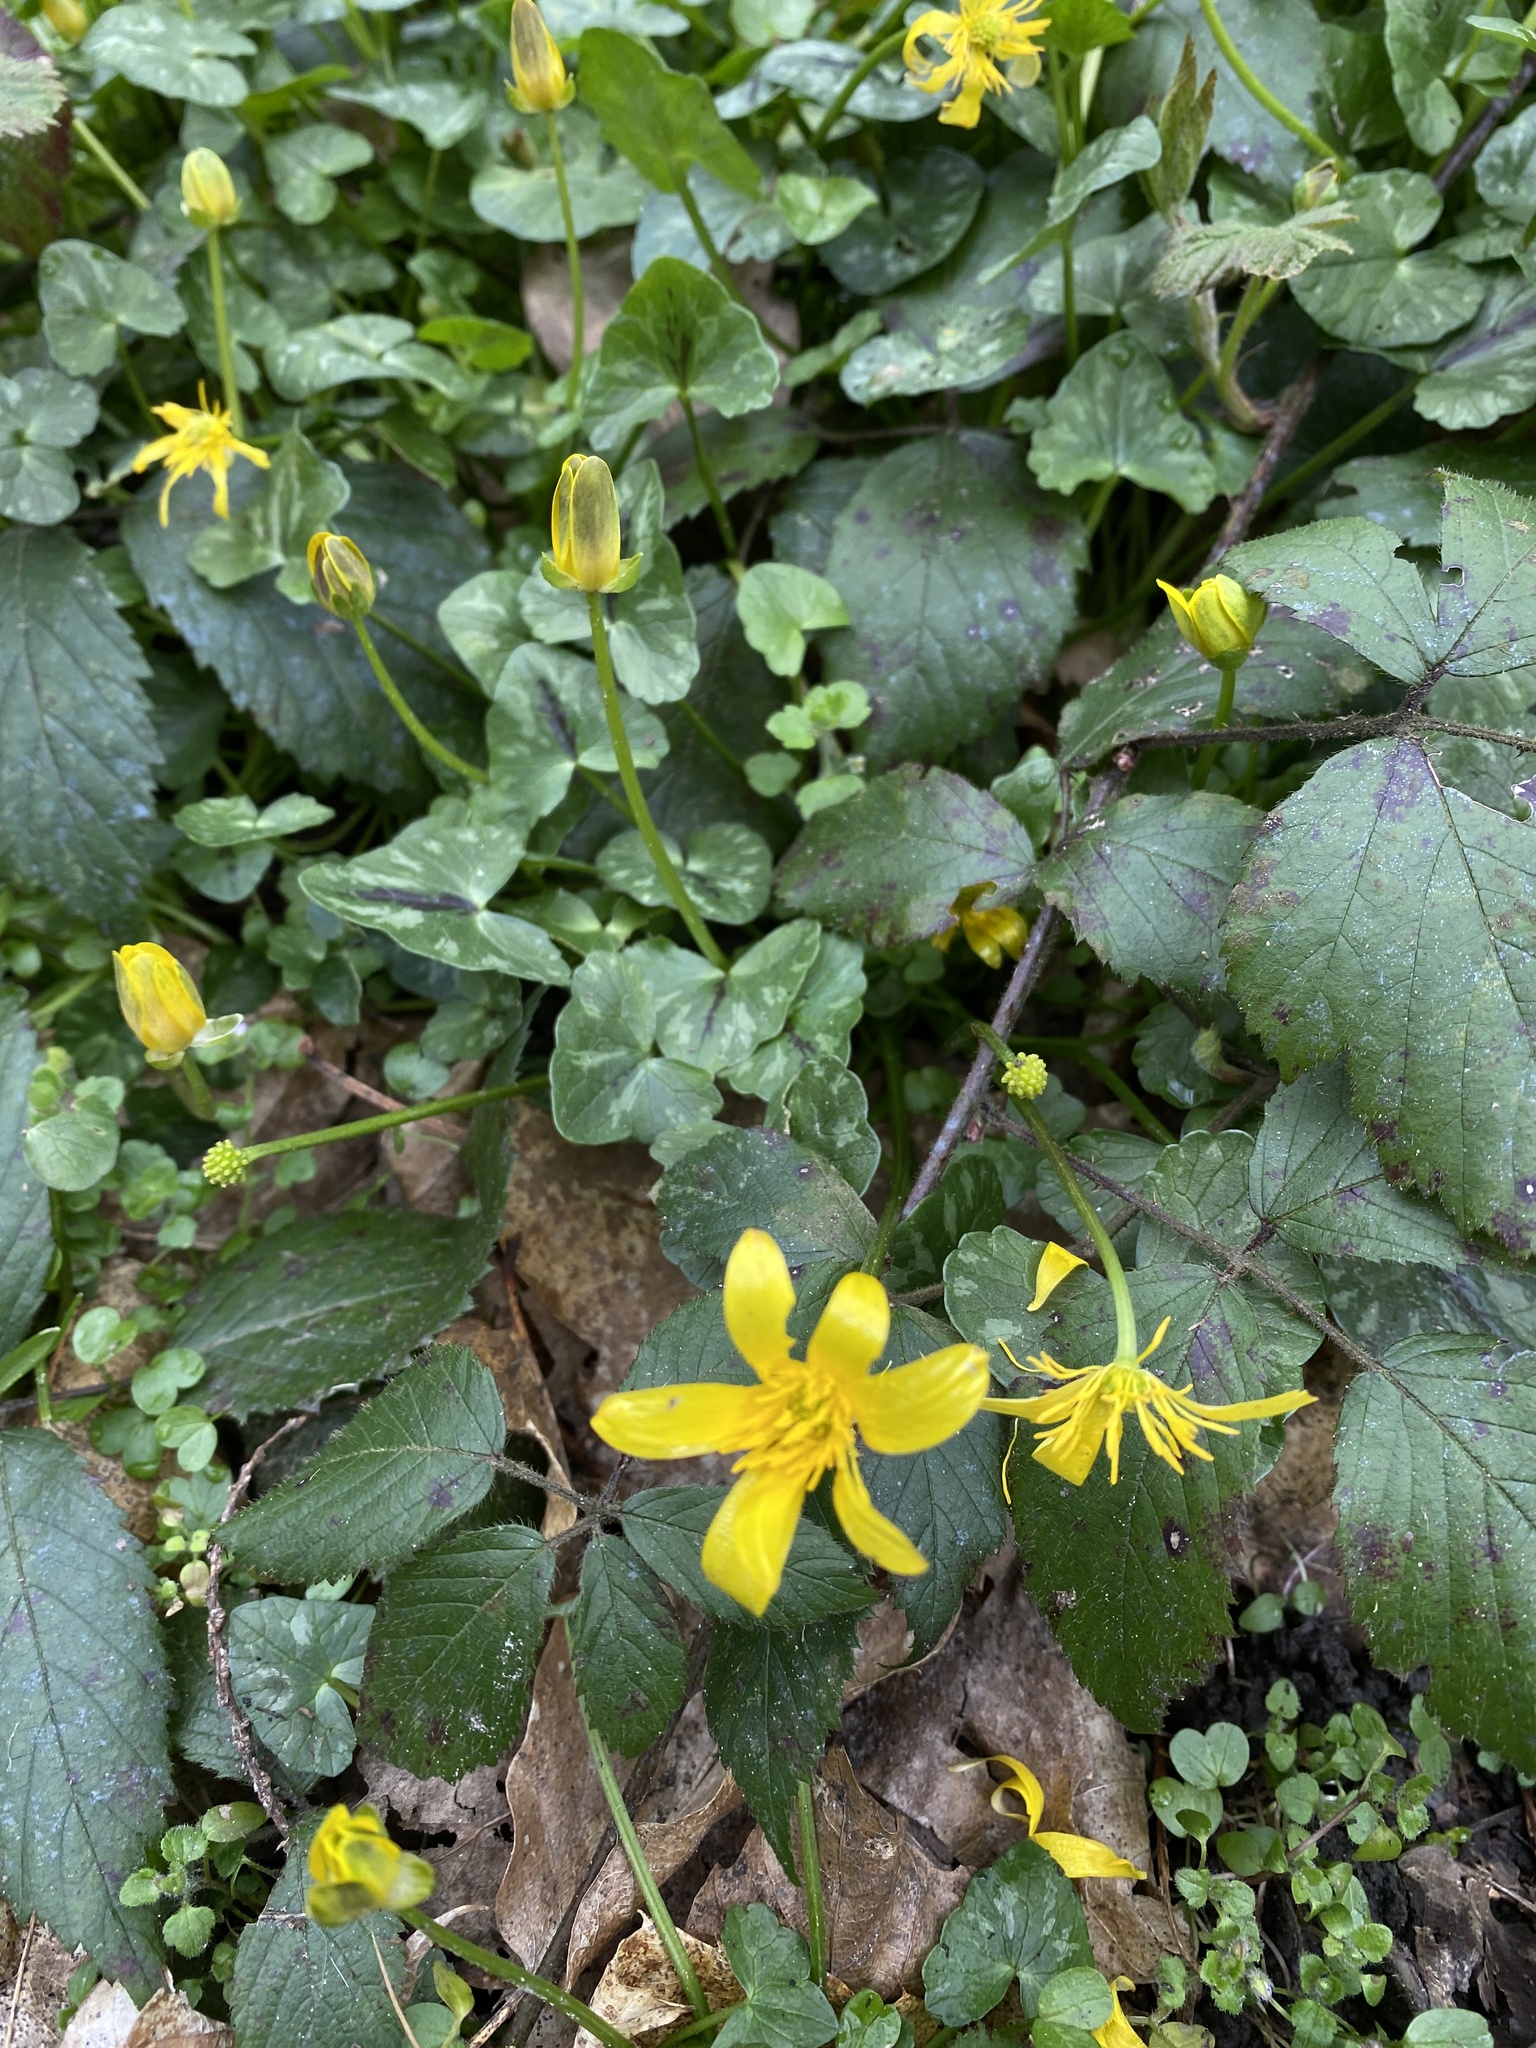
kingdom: Plantae
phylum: Tracheophyta
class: Magnoliopsida
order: Ranunculales
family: Ranunculaceae
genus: Ficaria
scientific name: Ficaria verna
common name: Lesser celandine
